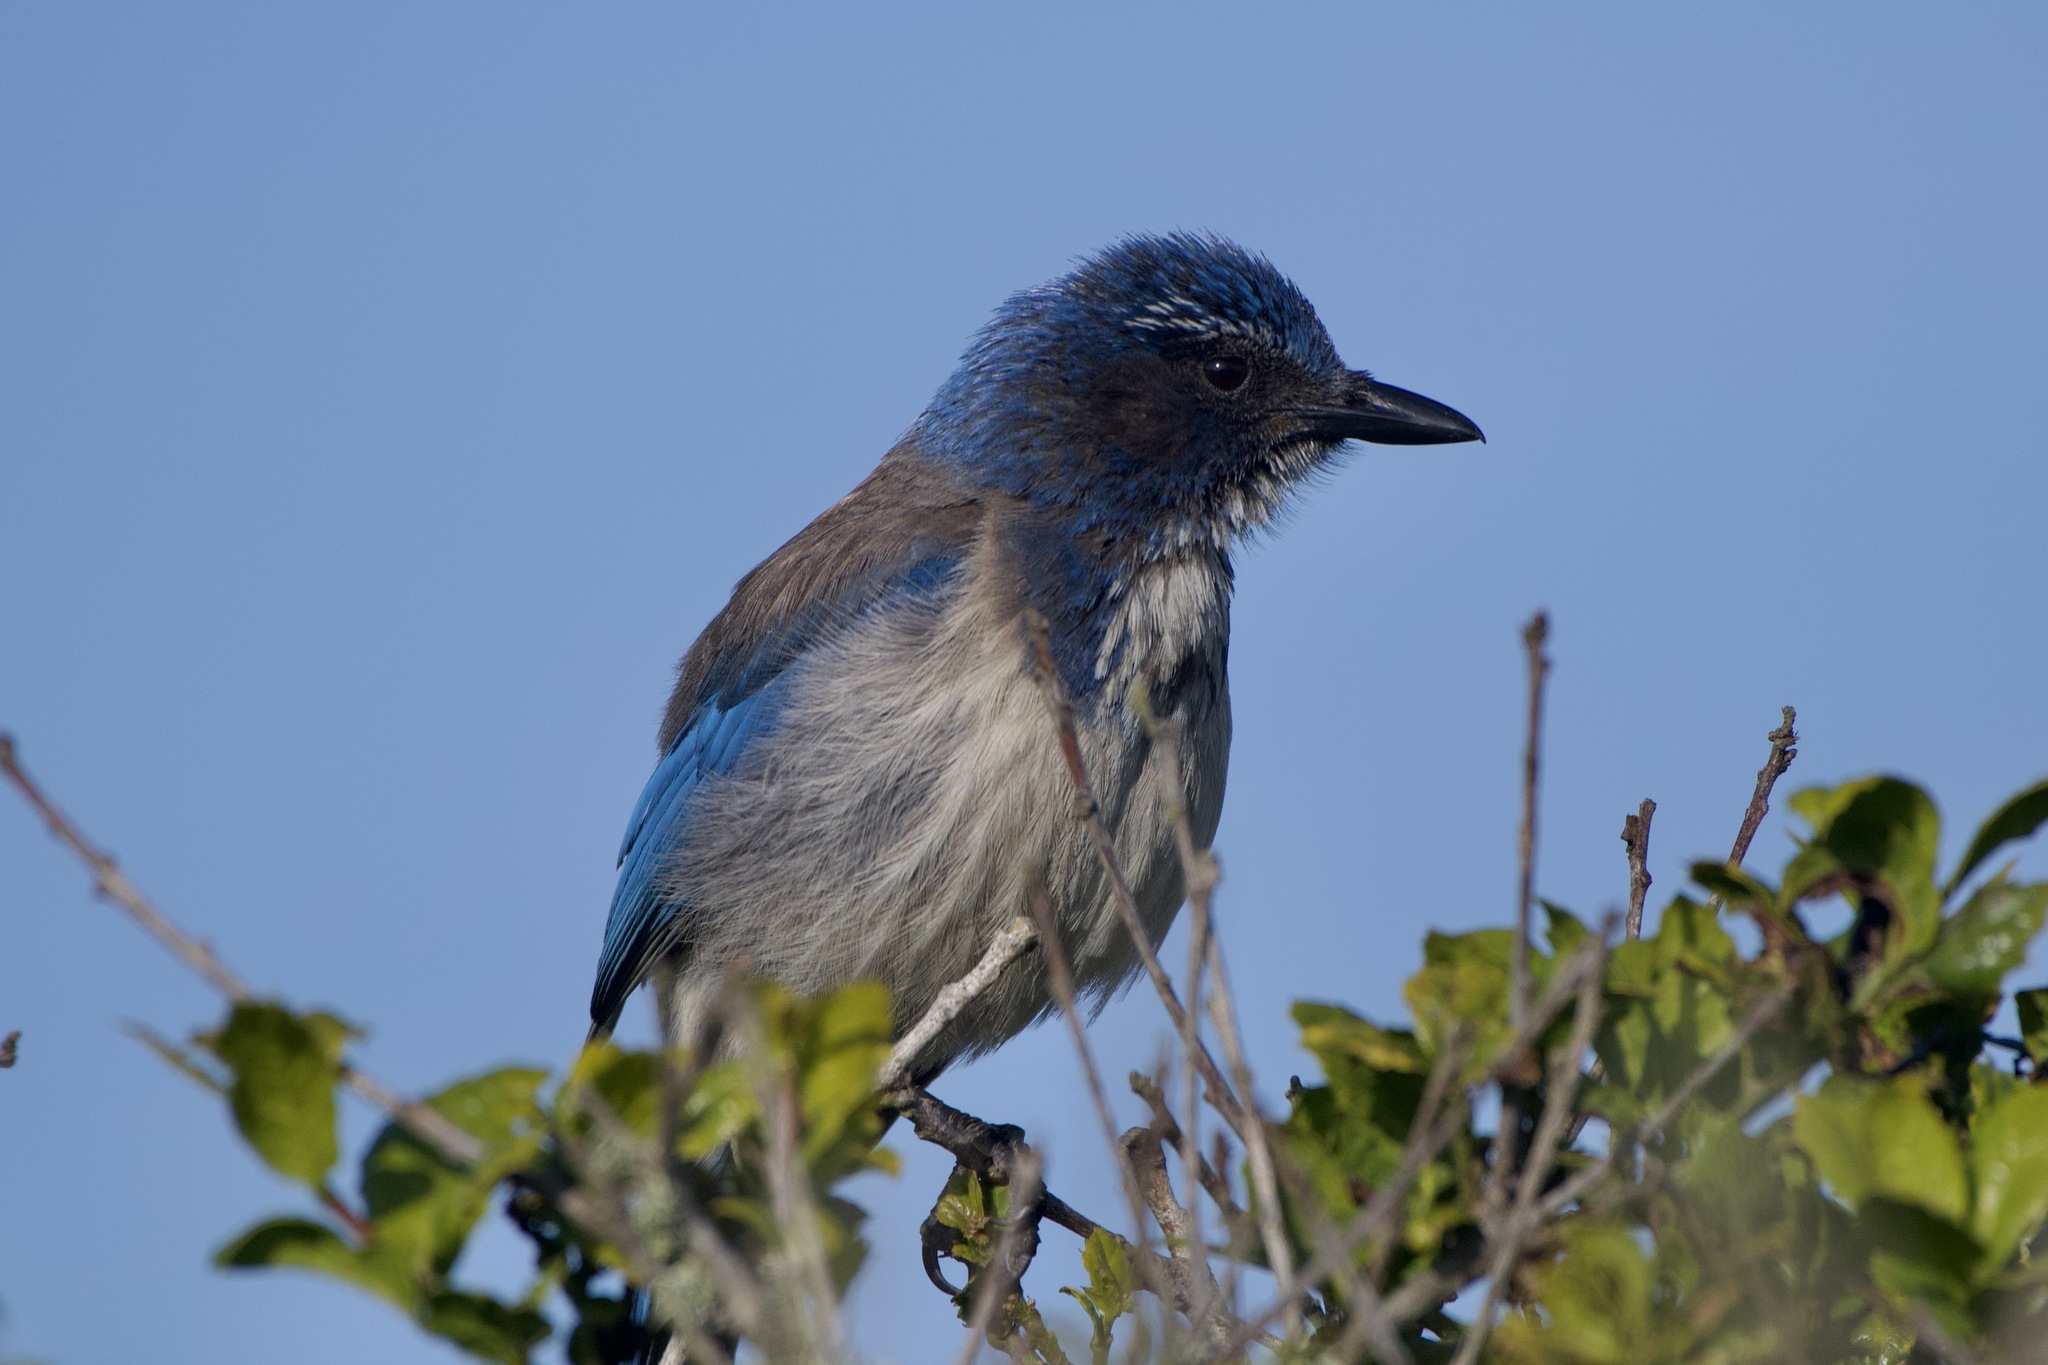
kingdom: Animalia
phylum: Chordata
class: Aves
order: Passeriformes
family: Corvidae
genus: Aphelocoma
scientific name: Aphelocoma californica
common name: California scrub-jay
